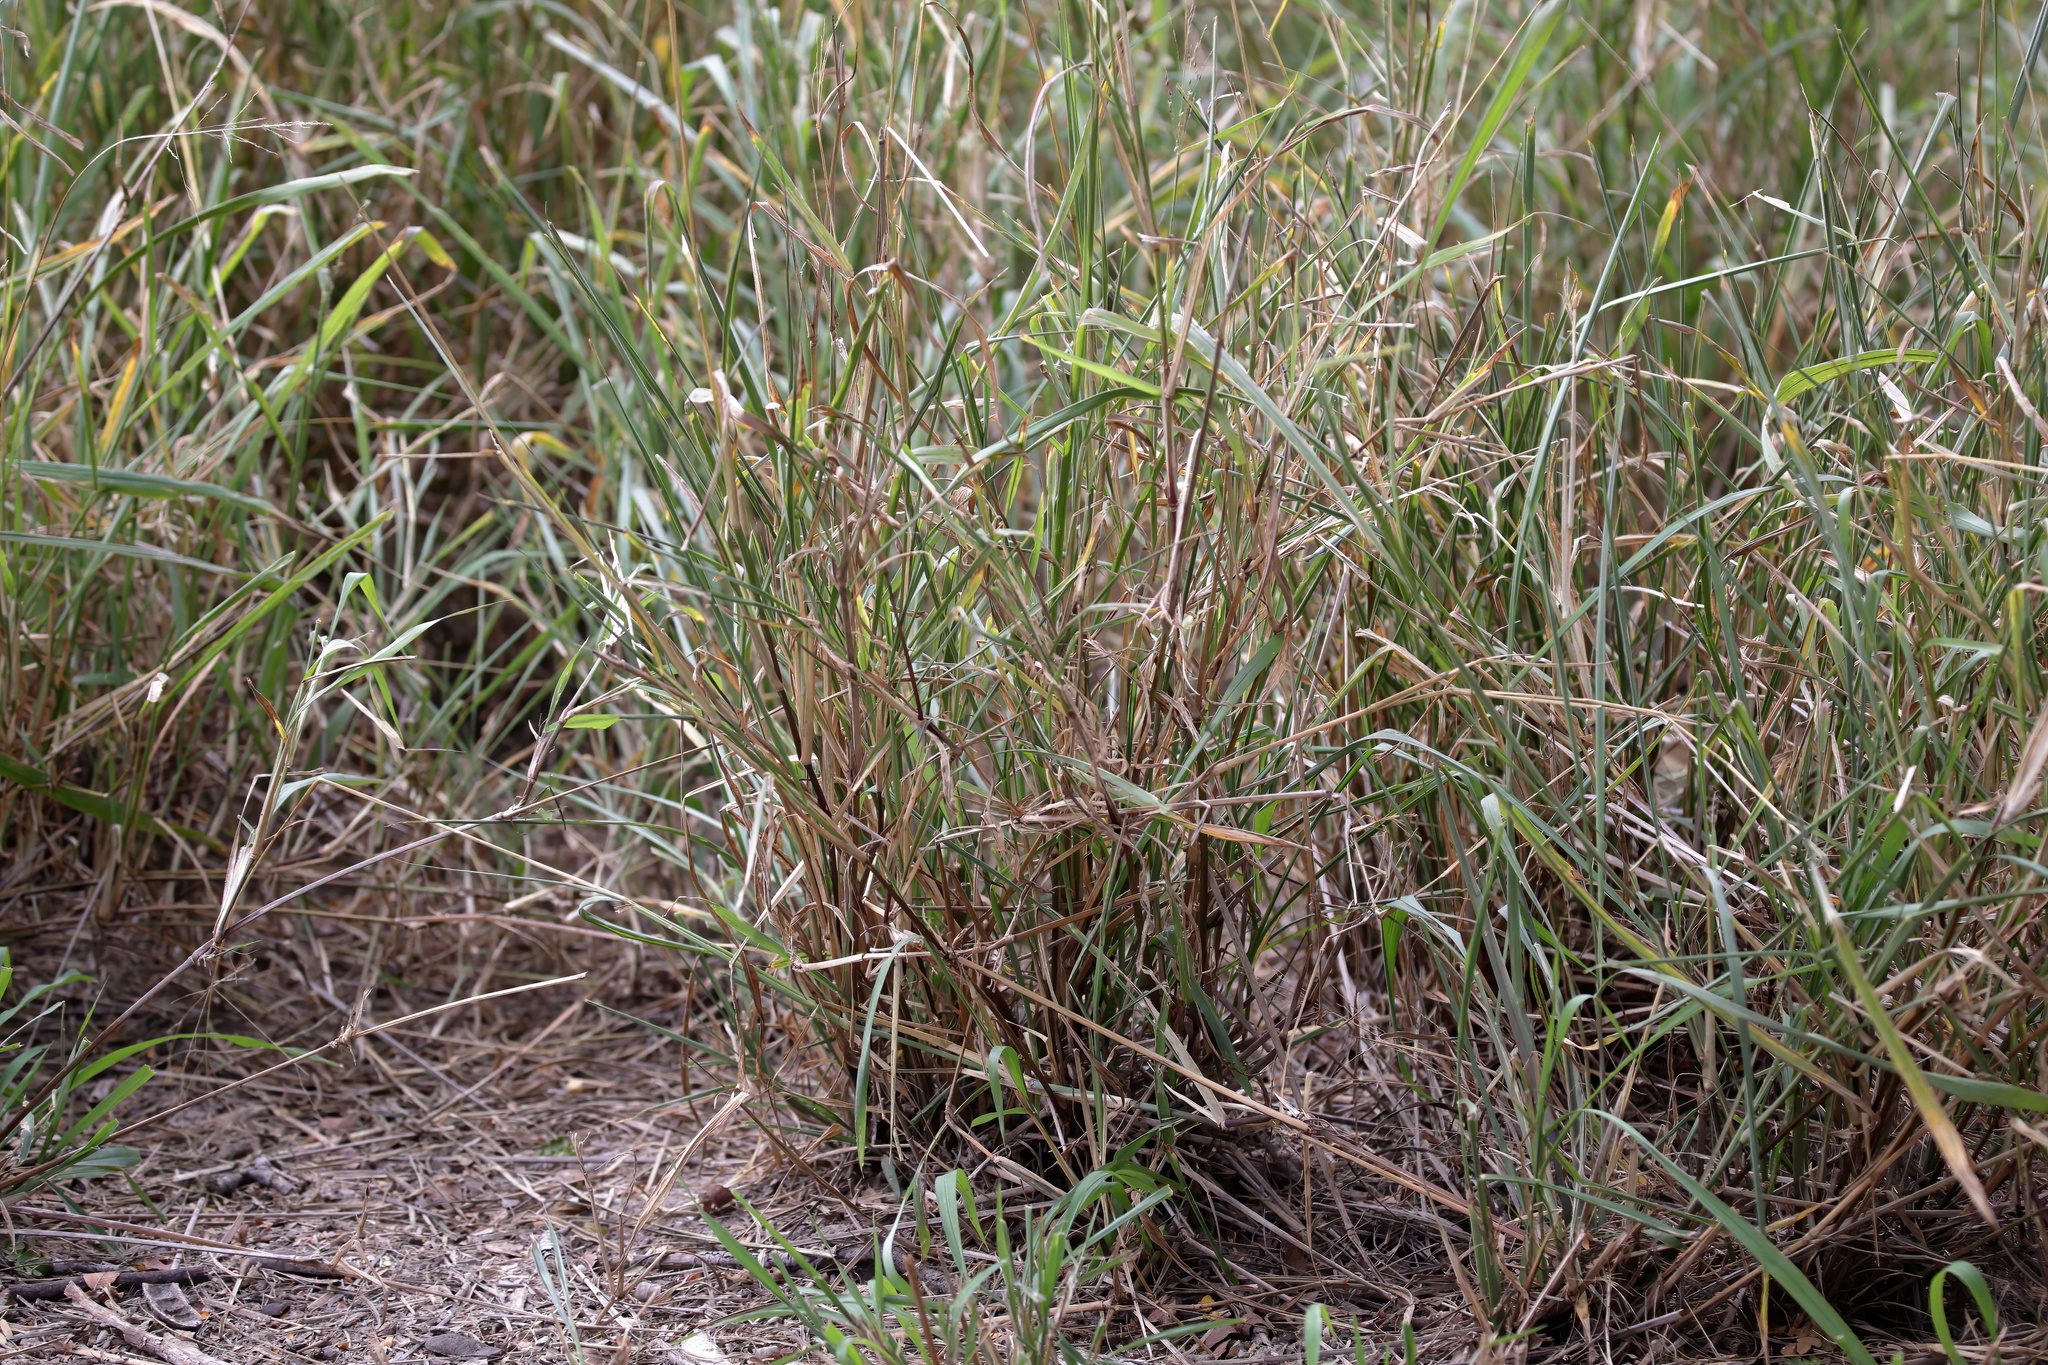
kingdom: Plantae
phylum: Tracheophyta
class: Liliopsida
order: Poales
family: Poaceae
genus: Megathyrsus
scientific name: Megathyrsus maximus
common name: Guineagrass
